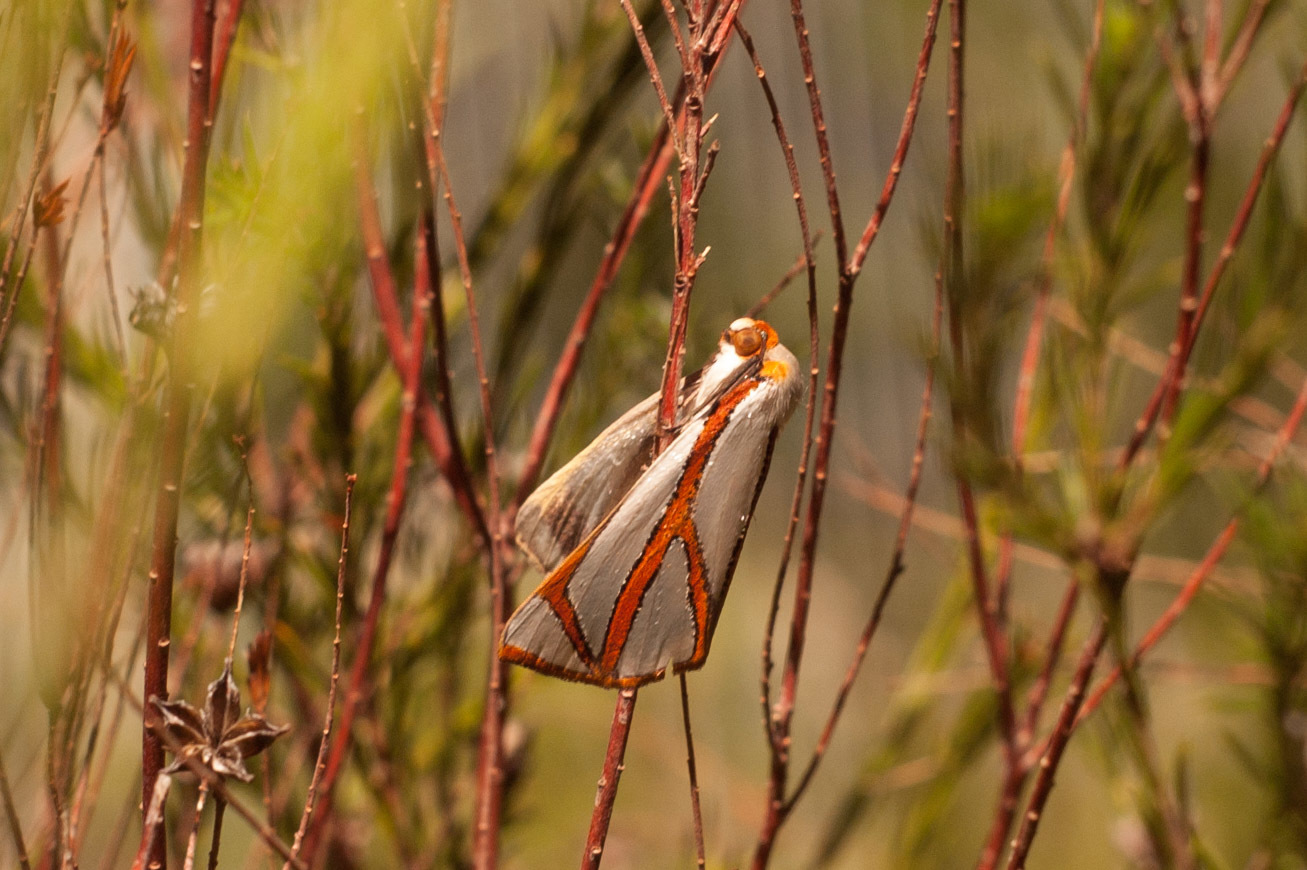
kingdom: Animalia
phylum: Arthropoda
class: Insecta
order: Lepidoptera
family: Geometridae
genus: Thalaina
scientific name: Thalaina angulosa
